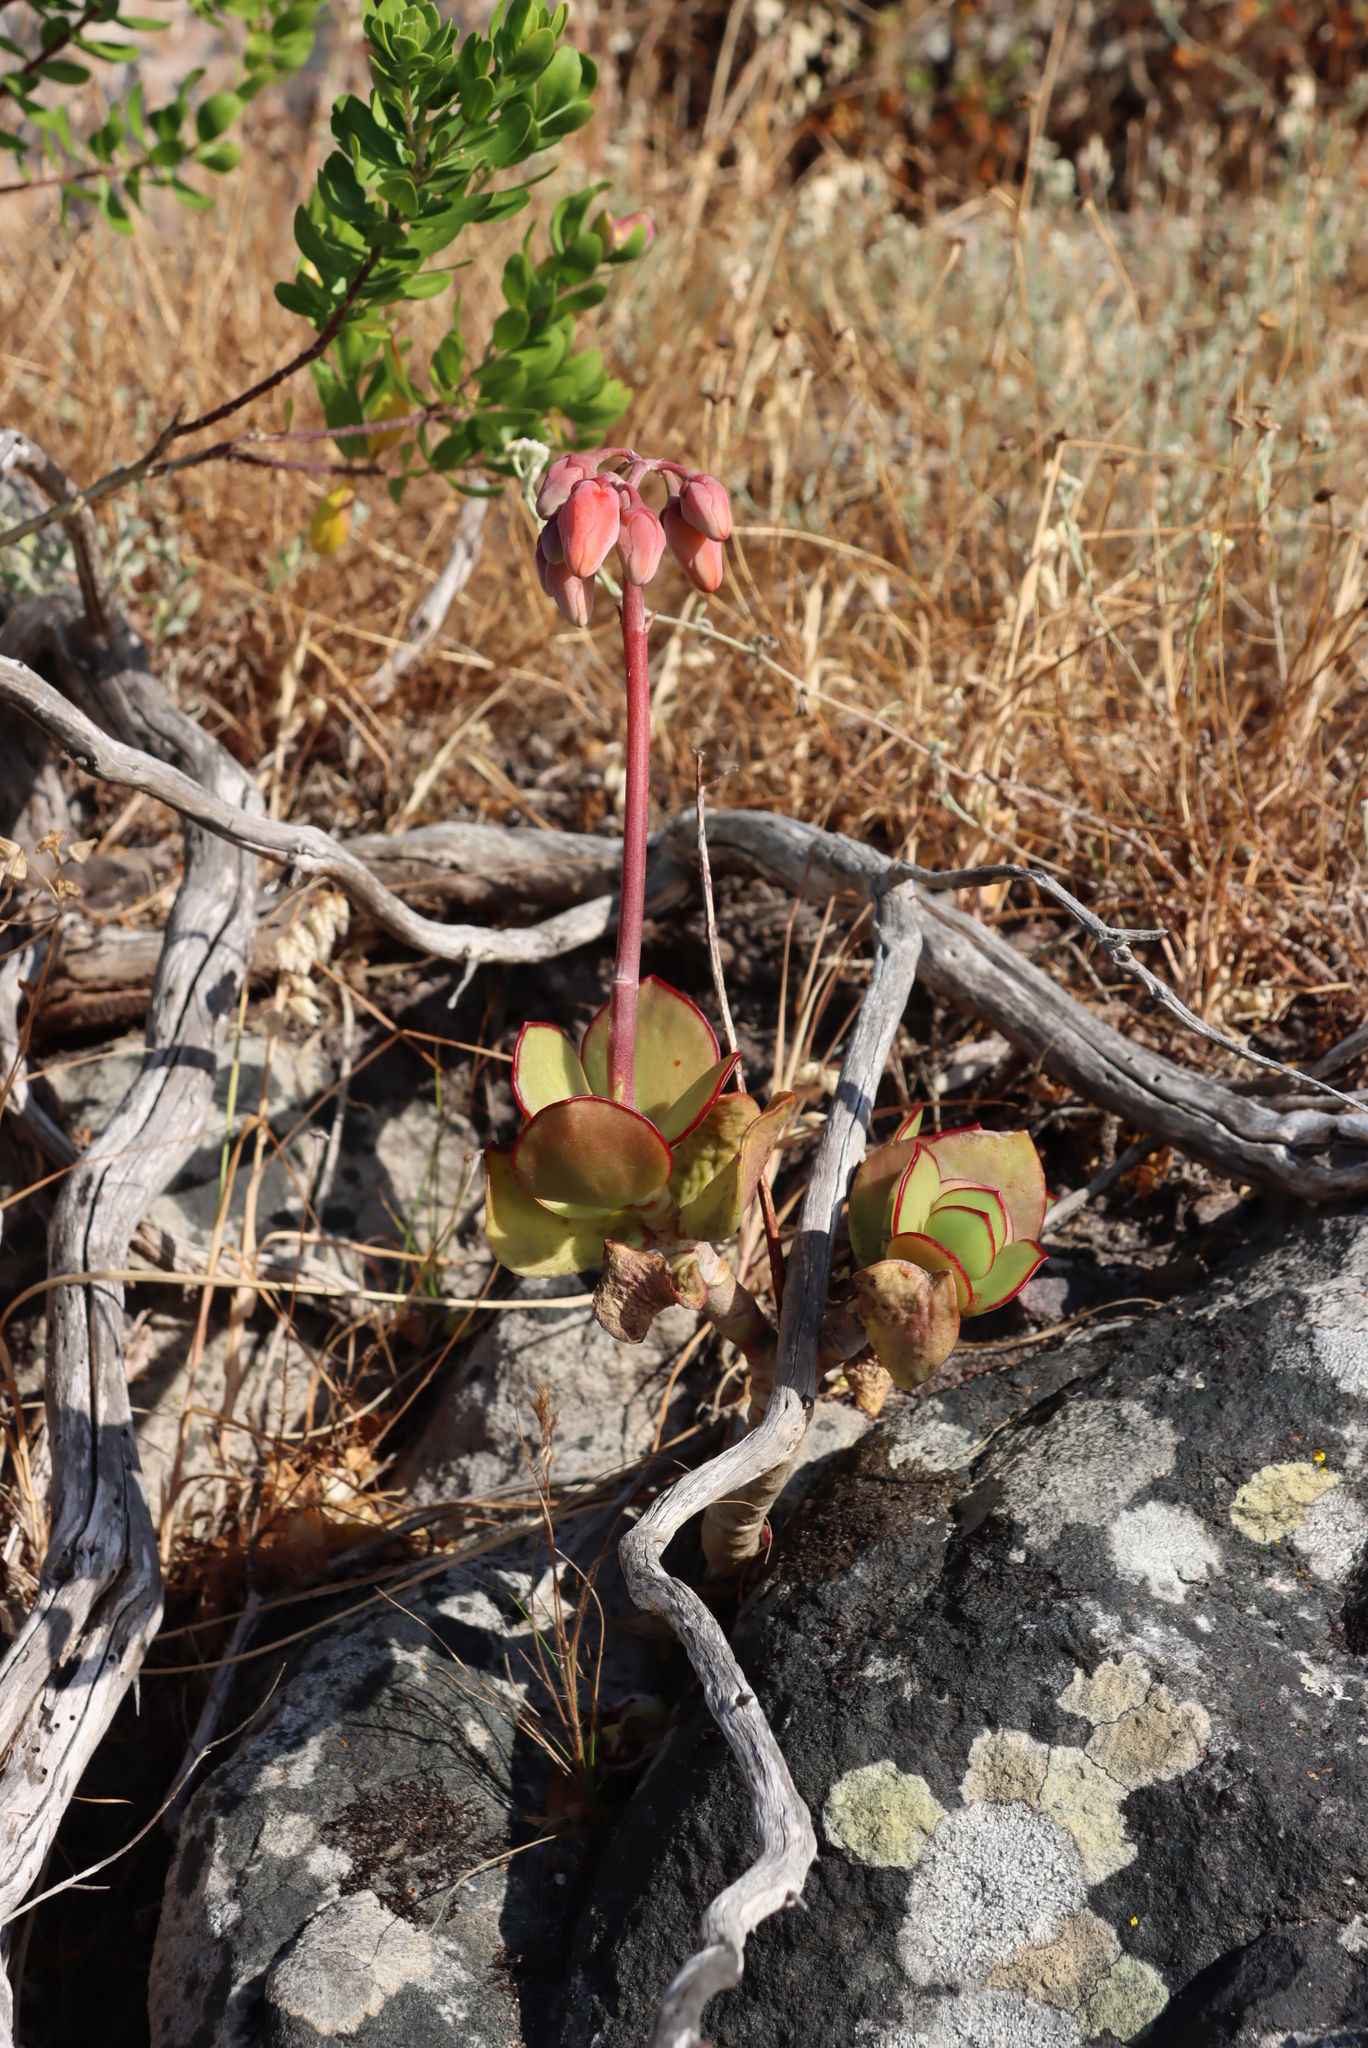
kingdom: Plantae
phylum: Tracheophyta
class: Magnoliopsida
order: Saxifragales
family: Crassulaceae
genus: Cotyledon
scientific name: Cotyledon orbiculata
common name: Pig's ear
